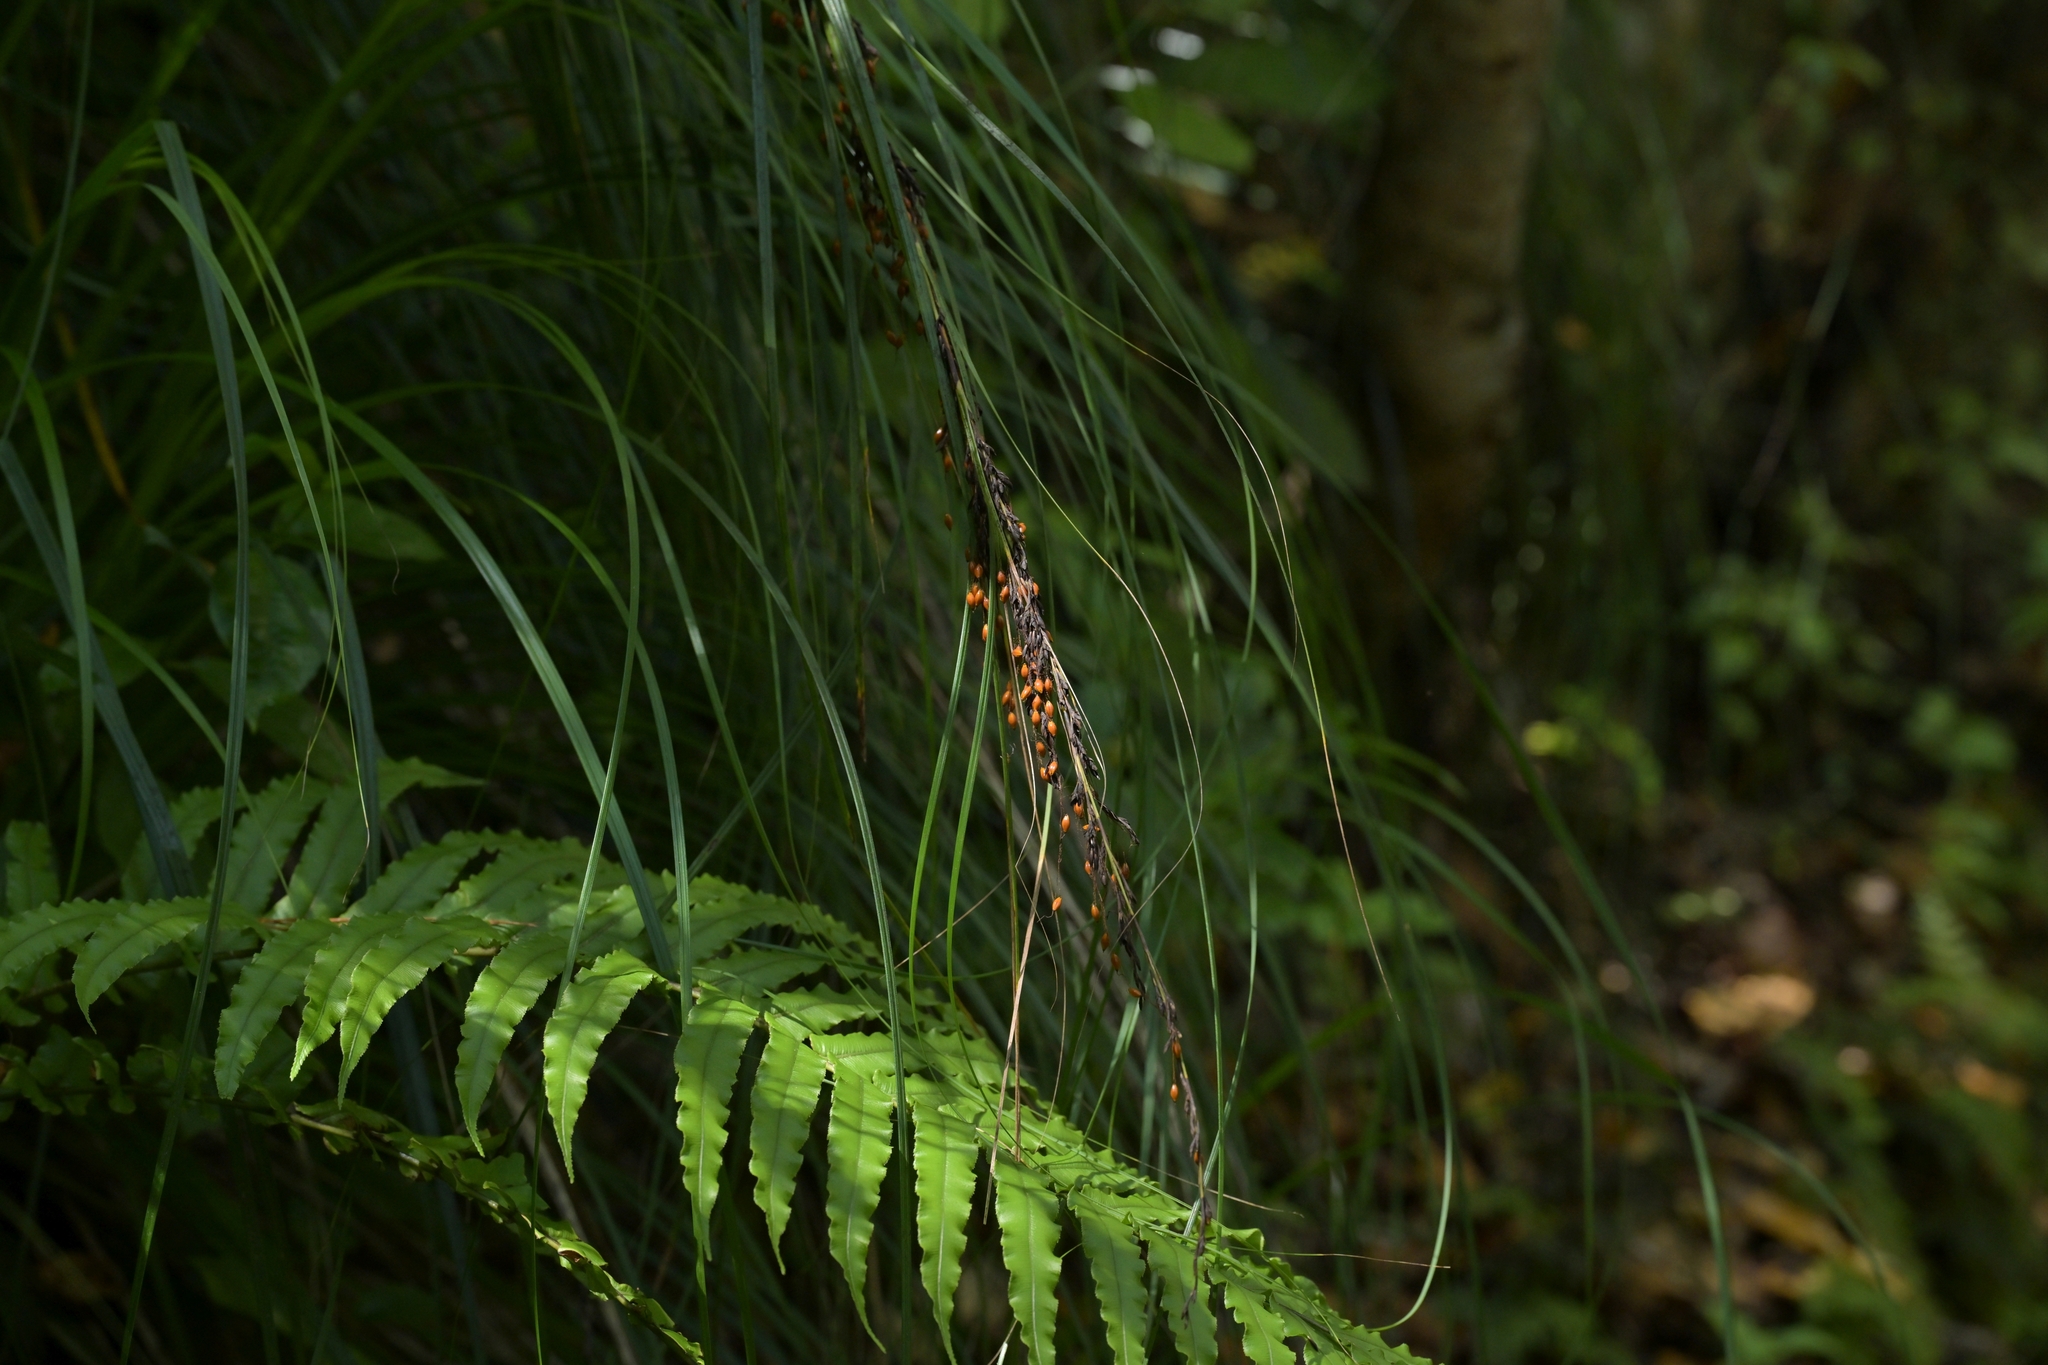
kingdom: Plantae
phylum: Tracheophyta
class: Liliopsida
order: Poales
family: Cyperaceae
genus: Gahnia
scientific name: Gahnia setifolia
